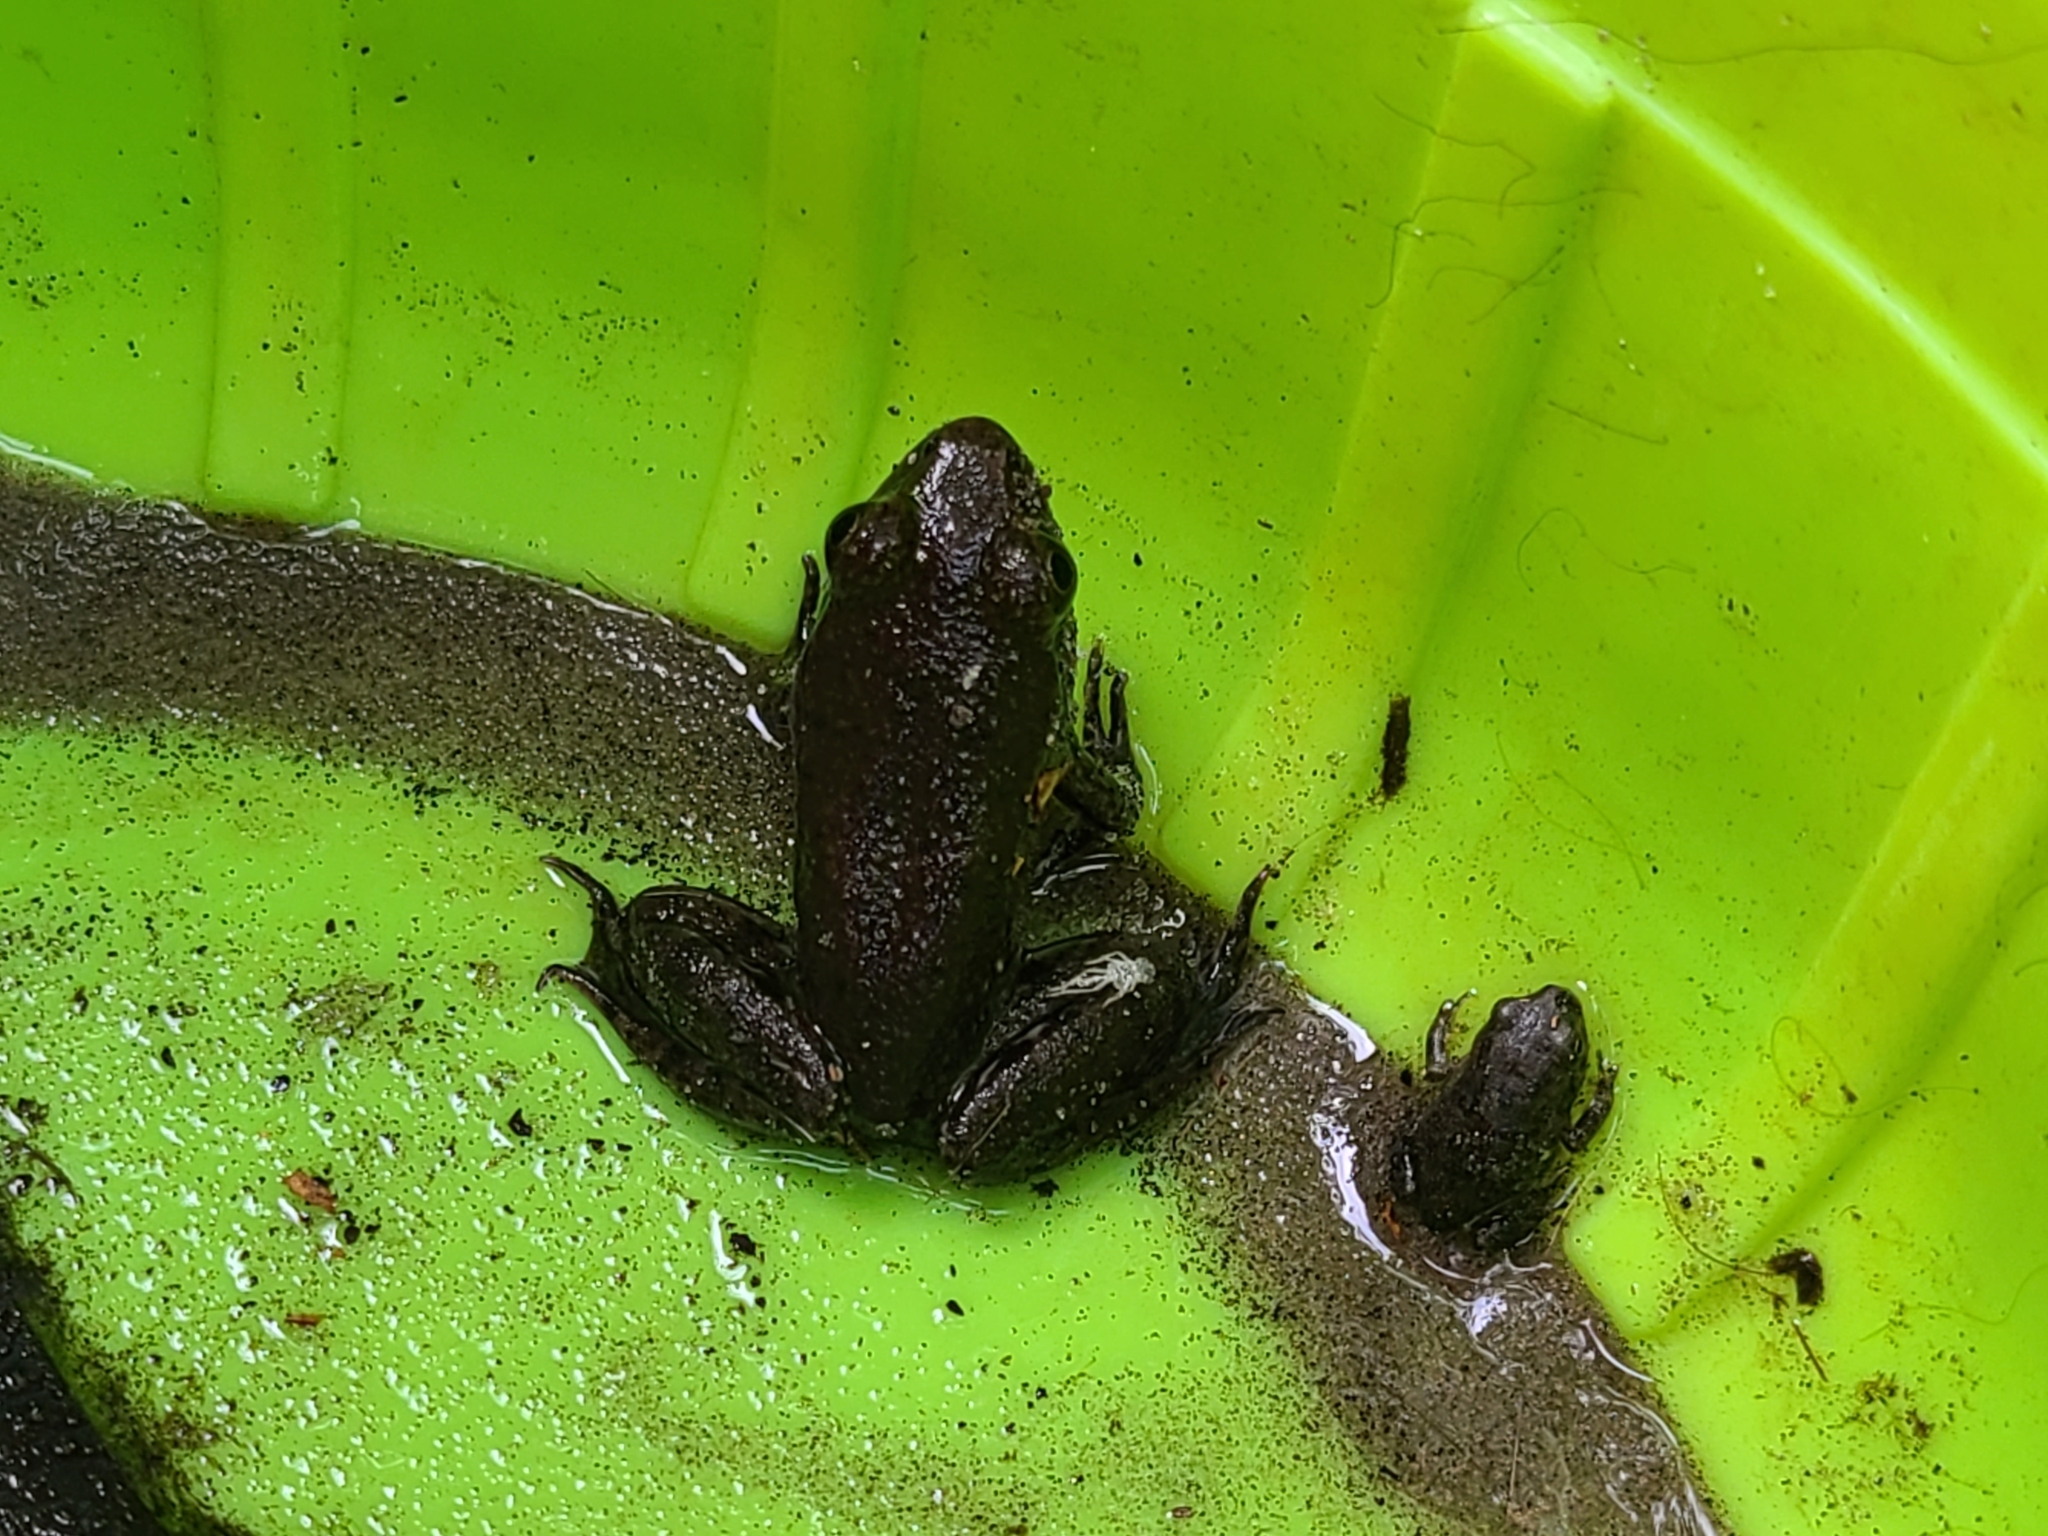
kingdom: Animalia
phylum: Chordata
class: Amphibia
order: Anura
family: Ranidae
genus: Lithobates
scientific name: Lithobates clamitans
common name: Green frog
